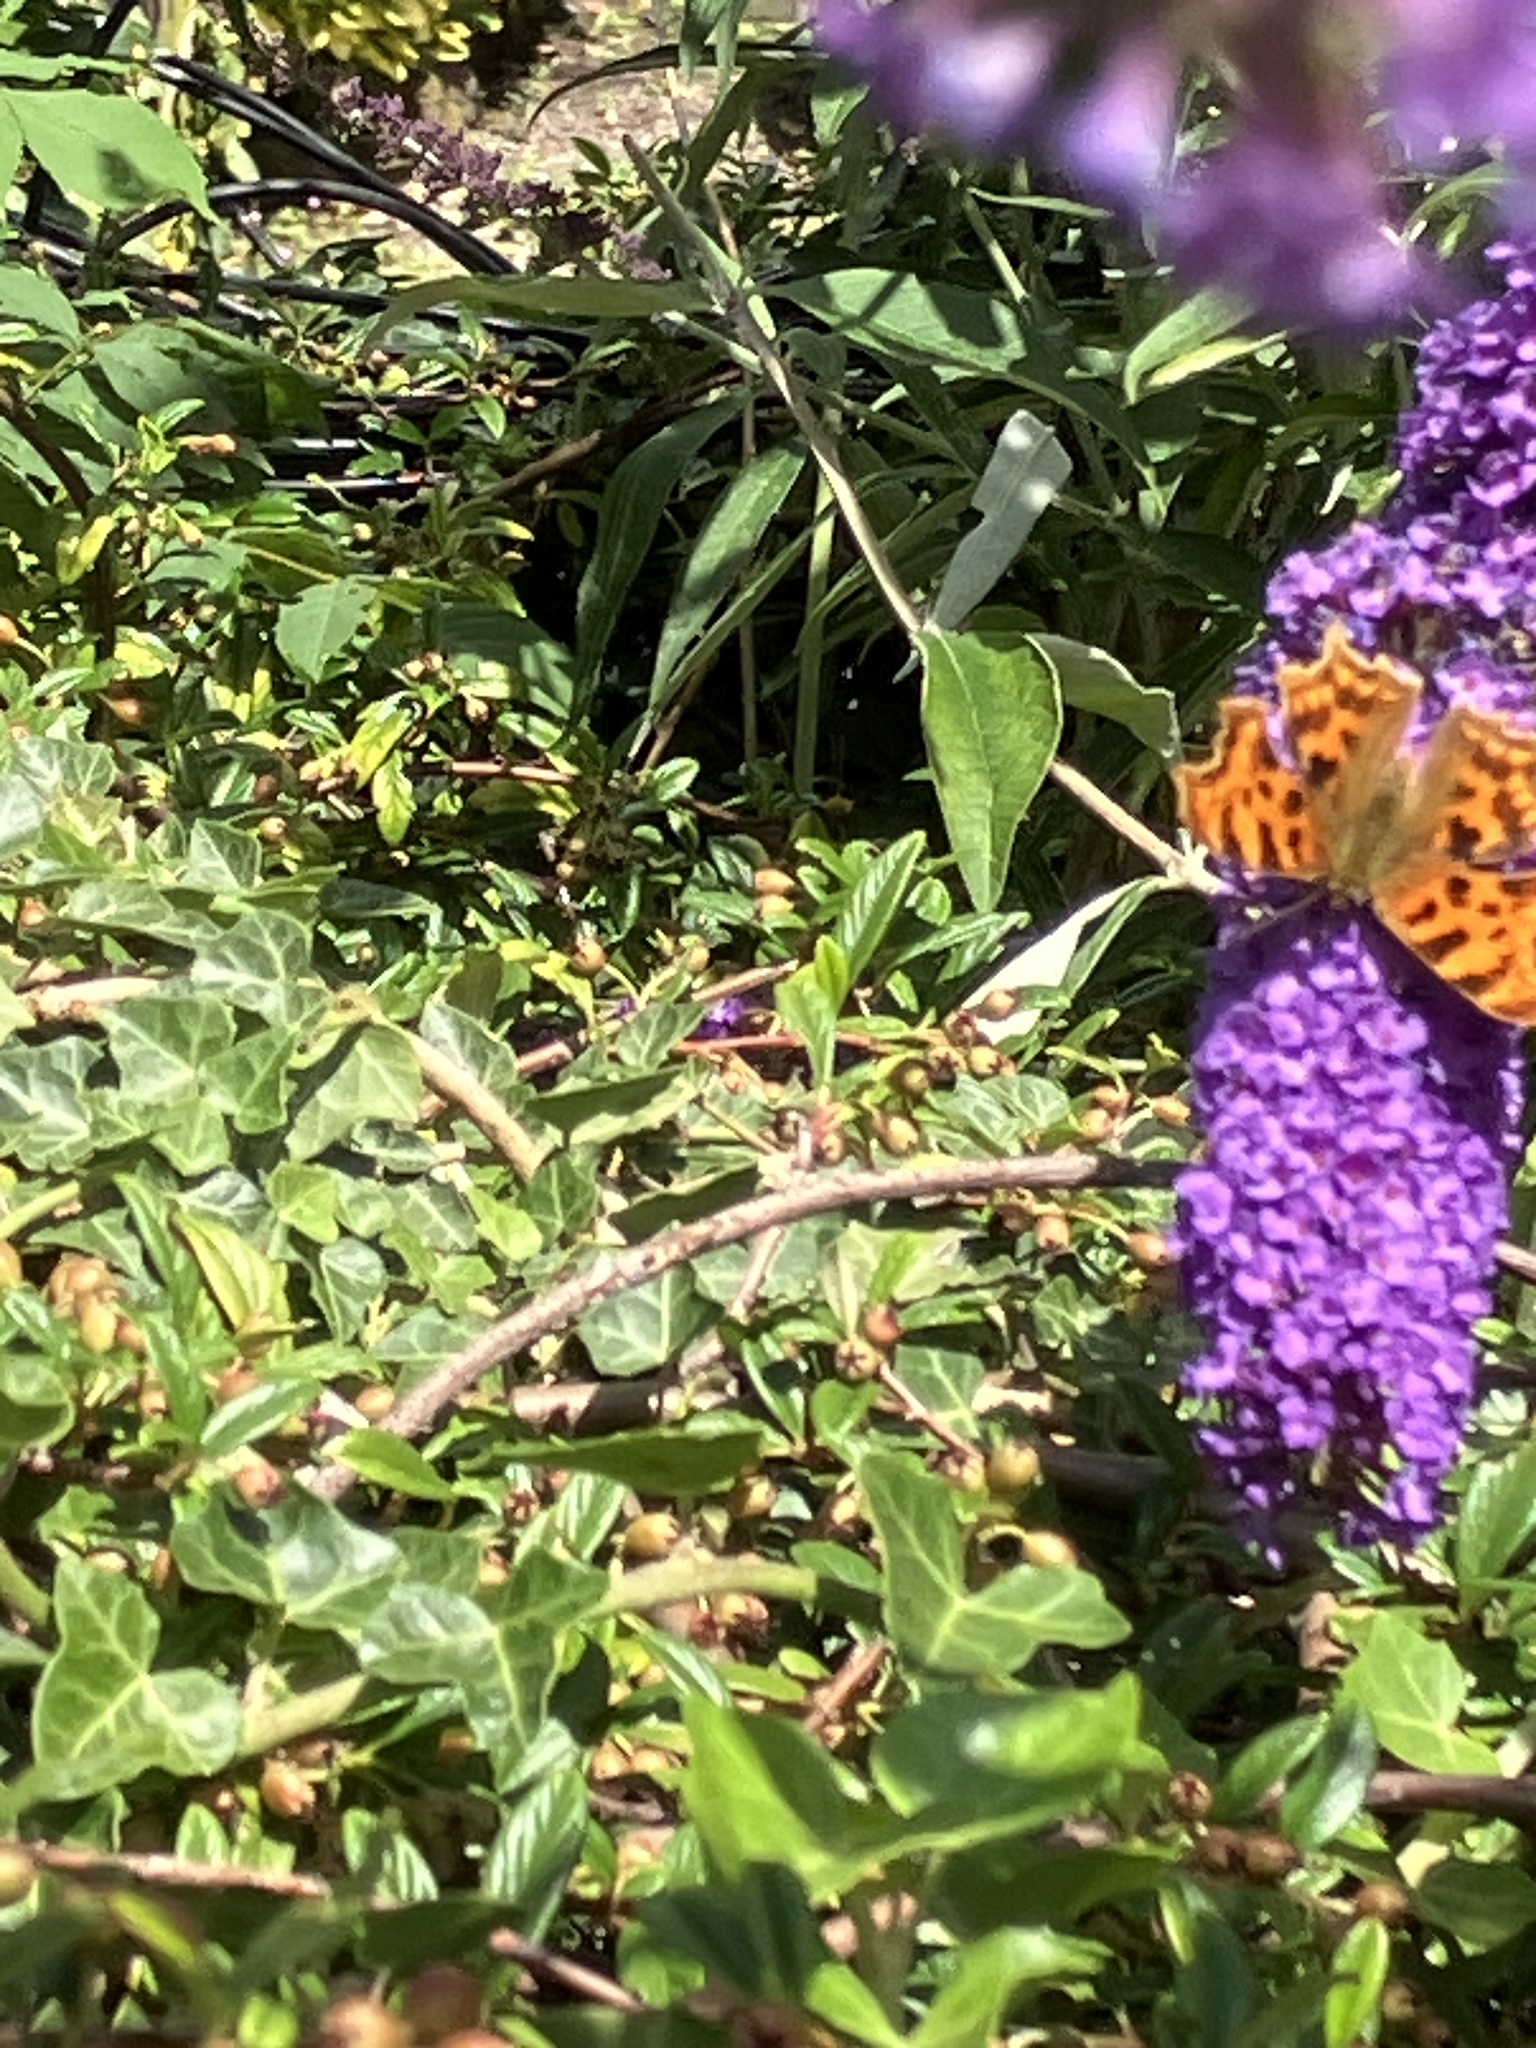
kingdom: Animalia
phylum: Arthropoda
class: Insecta
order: Lepidoptera
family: Nymphalidae
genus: Polygonia
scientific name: Polygonia c-album
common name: Comma
